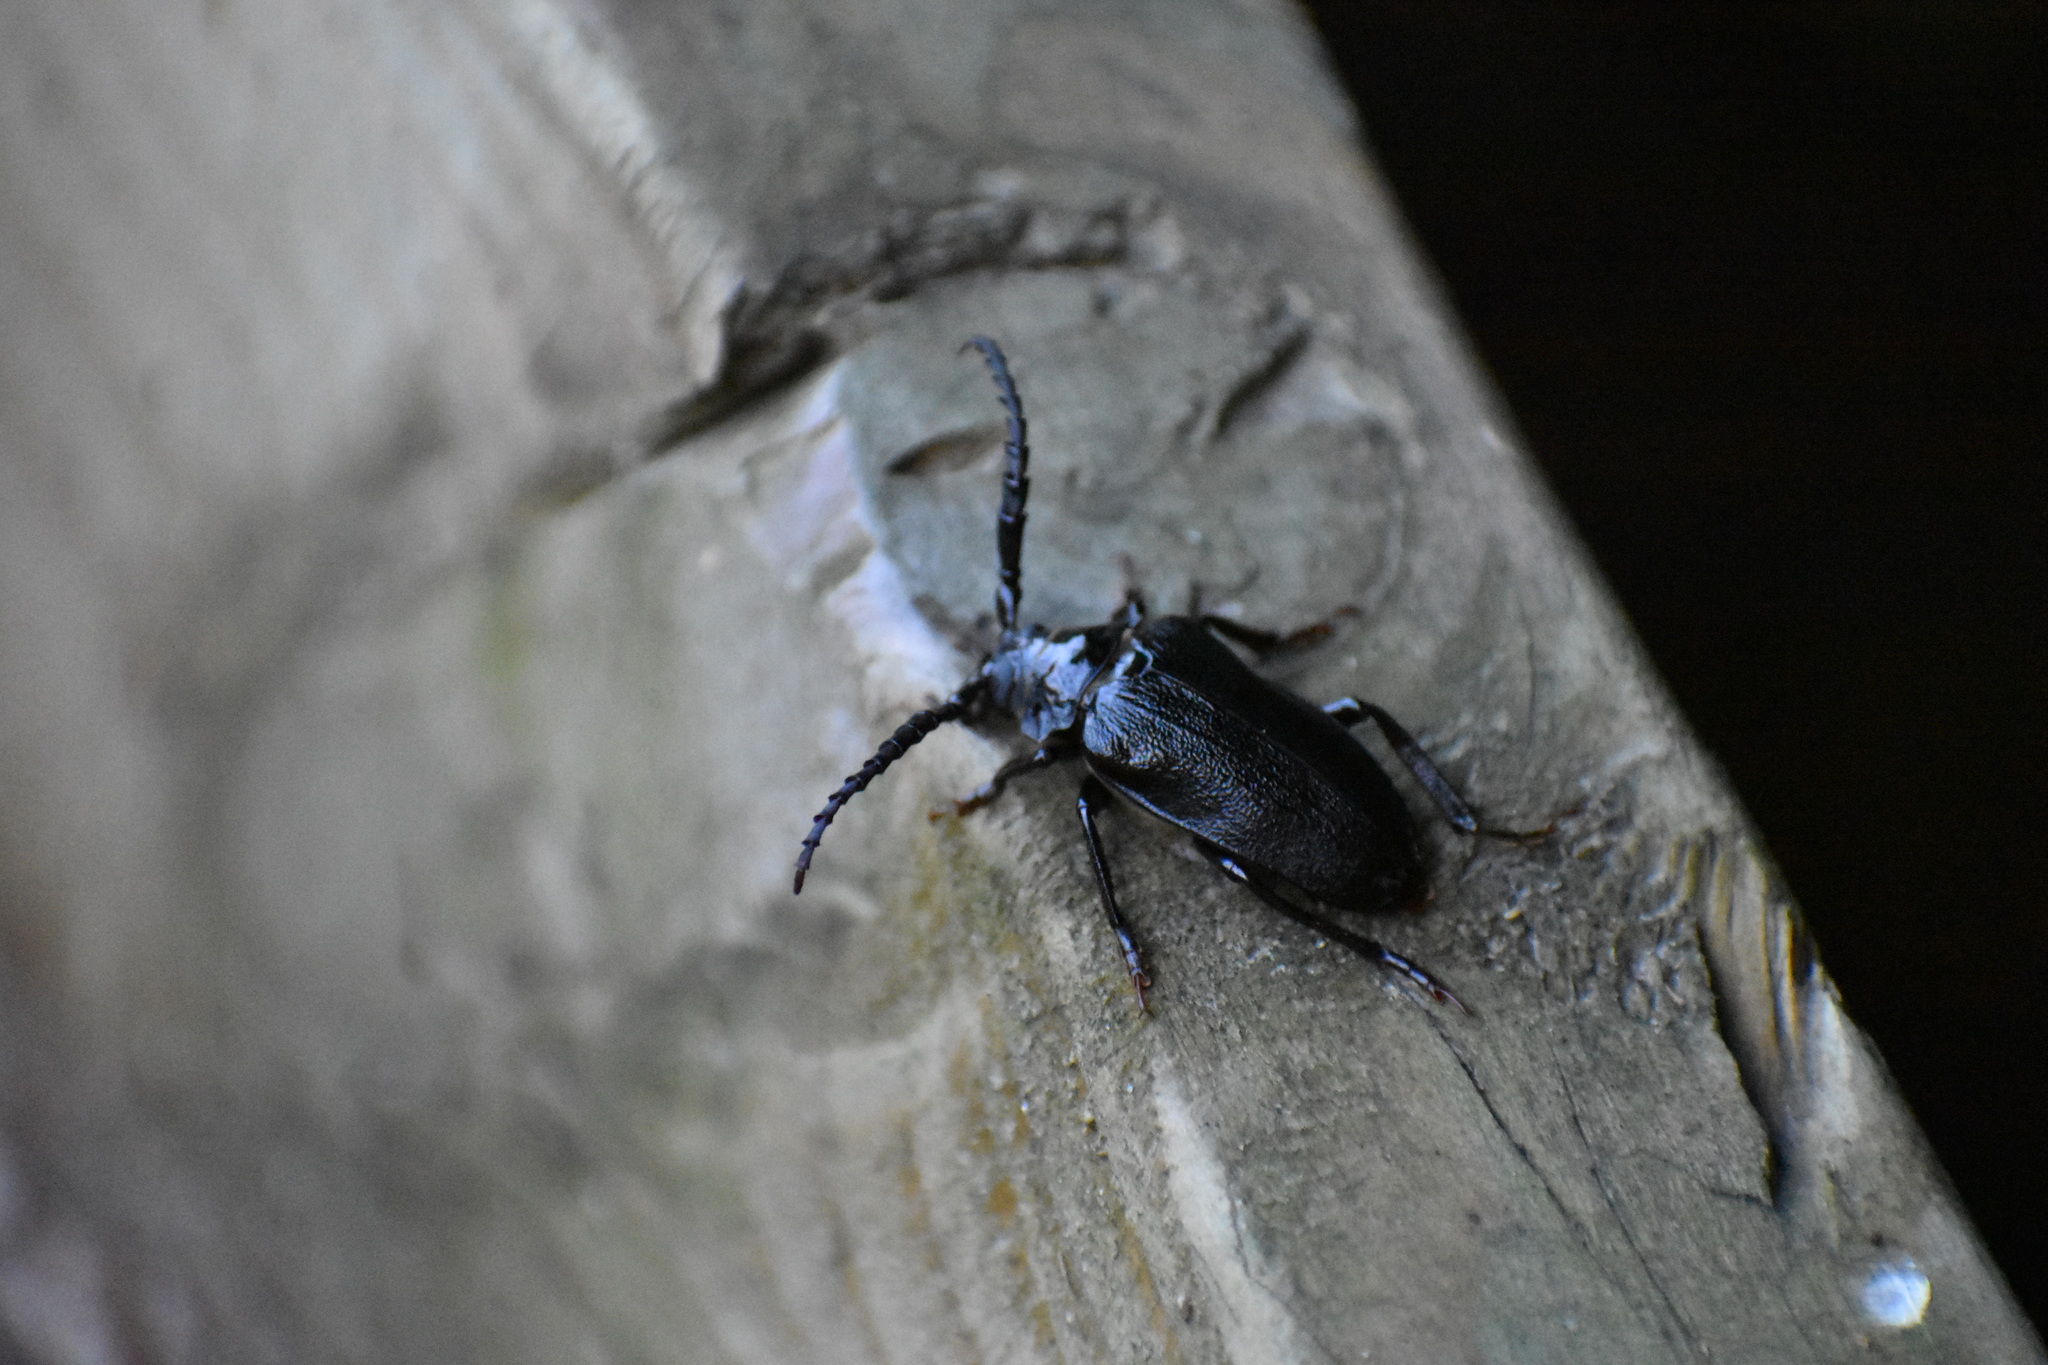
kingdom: Animalia
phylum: Arthropoda
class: Insecta
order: Coleoptera
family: Cerambycidae
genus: Prionus
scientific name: Prionus laticollis
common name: Broad necked prionus
